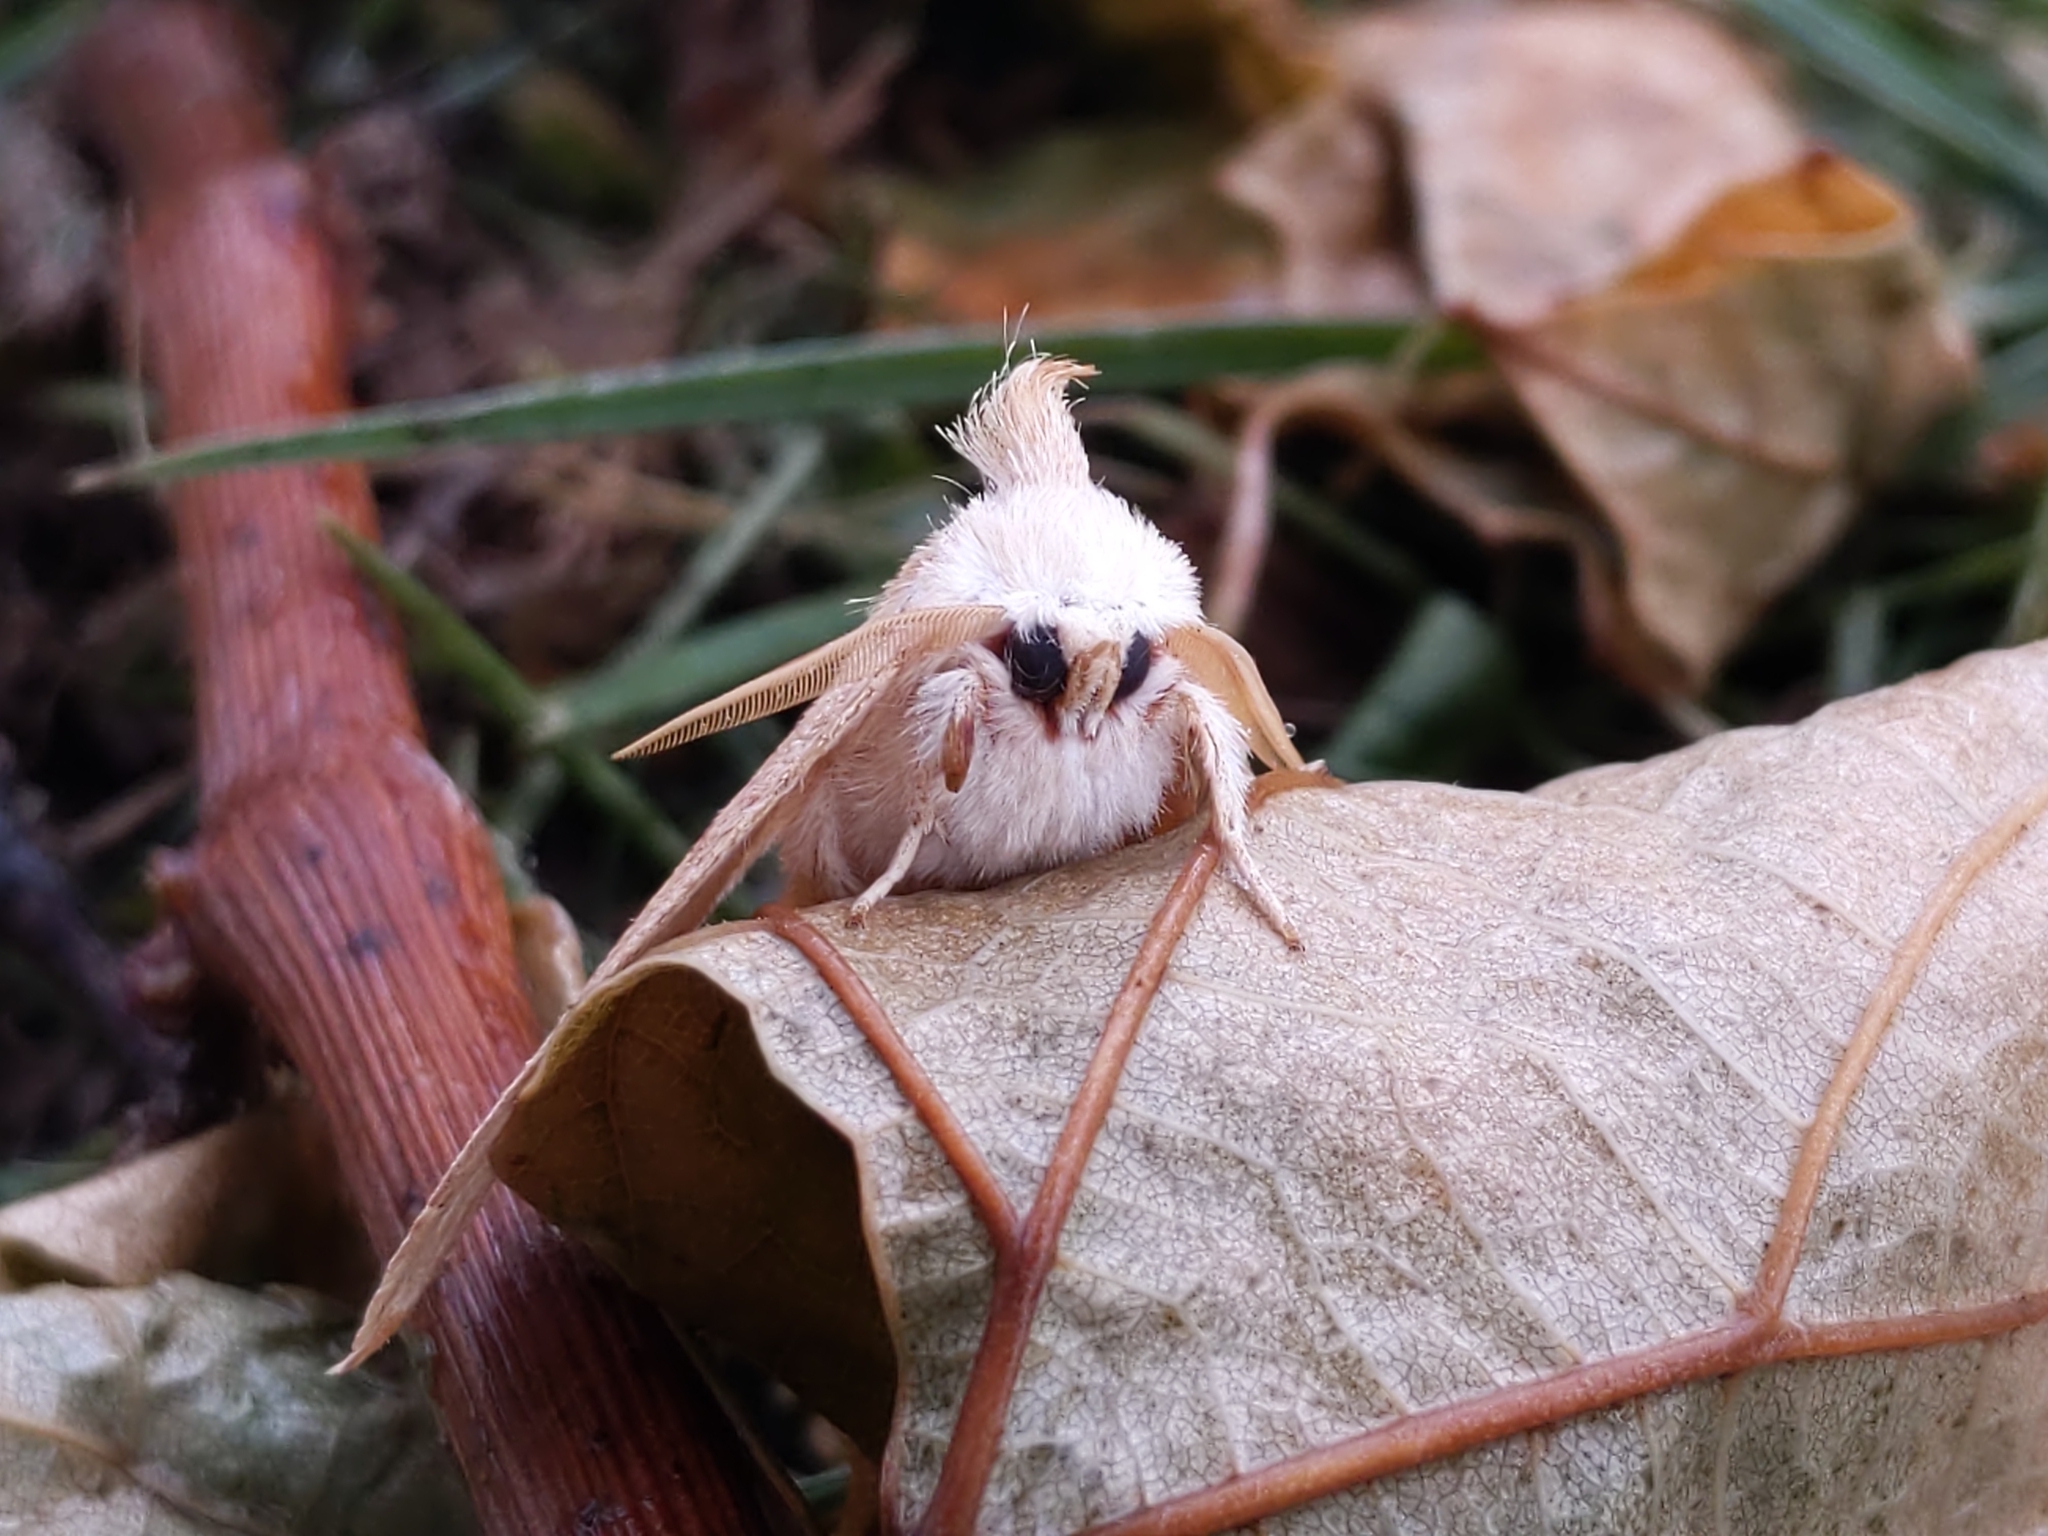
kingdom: Animalia
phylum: Arthropoda
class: Insecta
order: Lepidoptera
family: Notodontidae
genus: Nadata
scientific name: Nadata gibbosa
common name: White-dotted prominent
